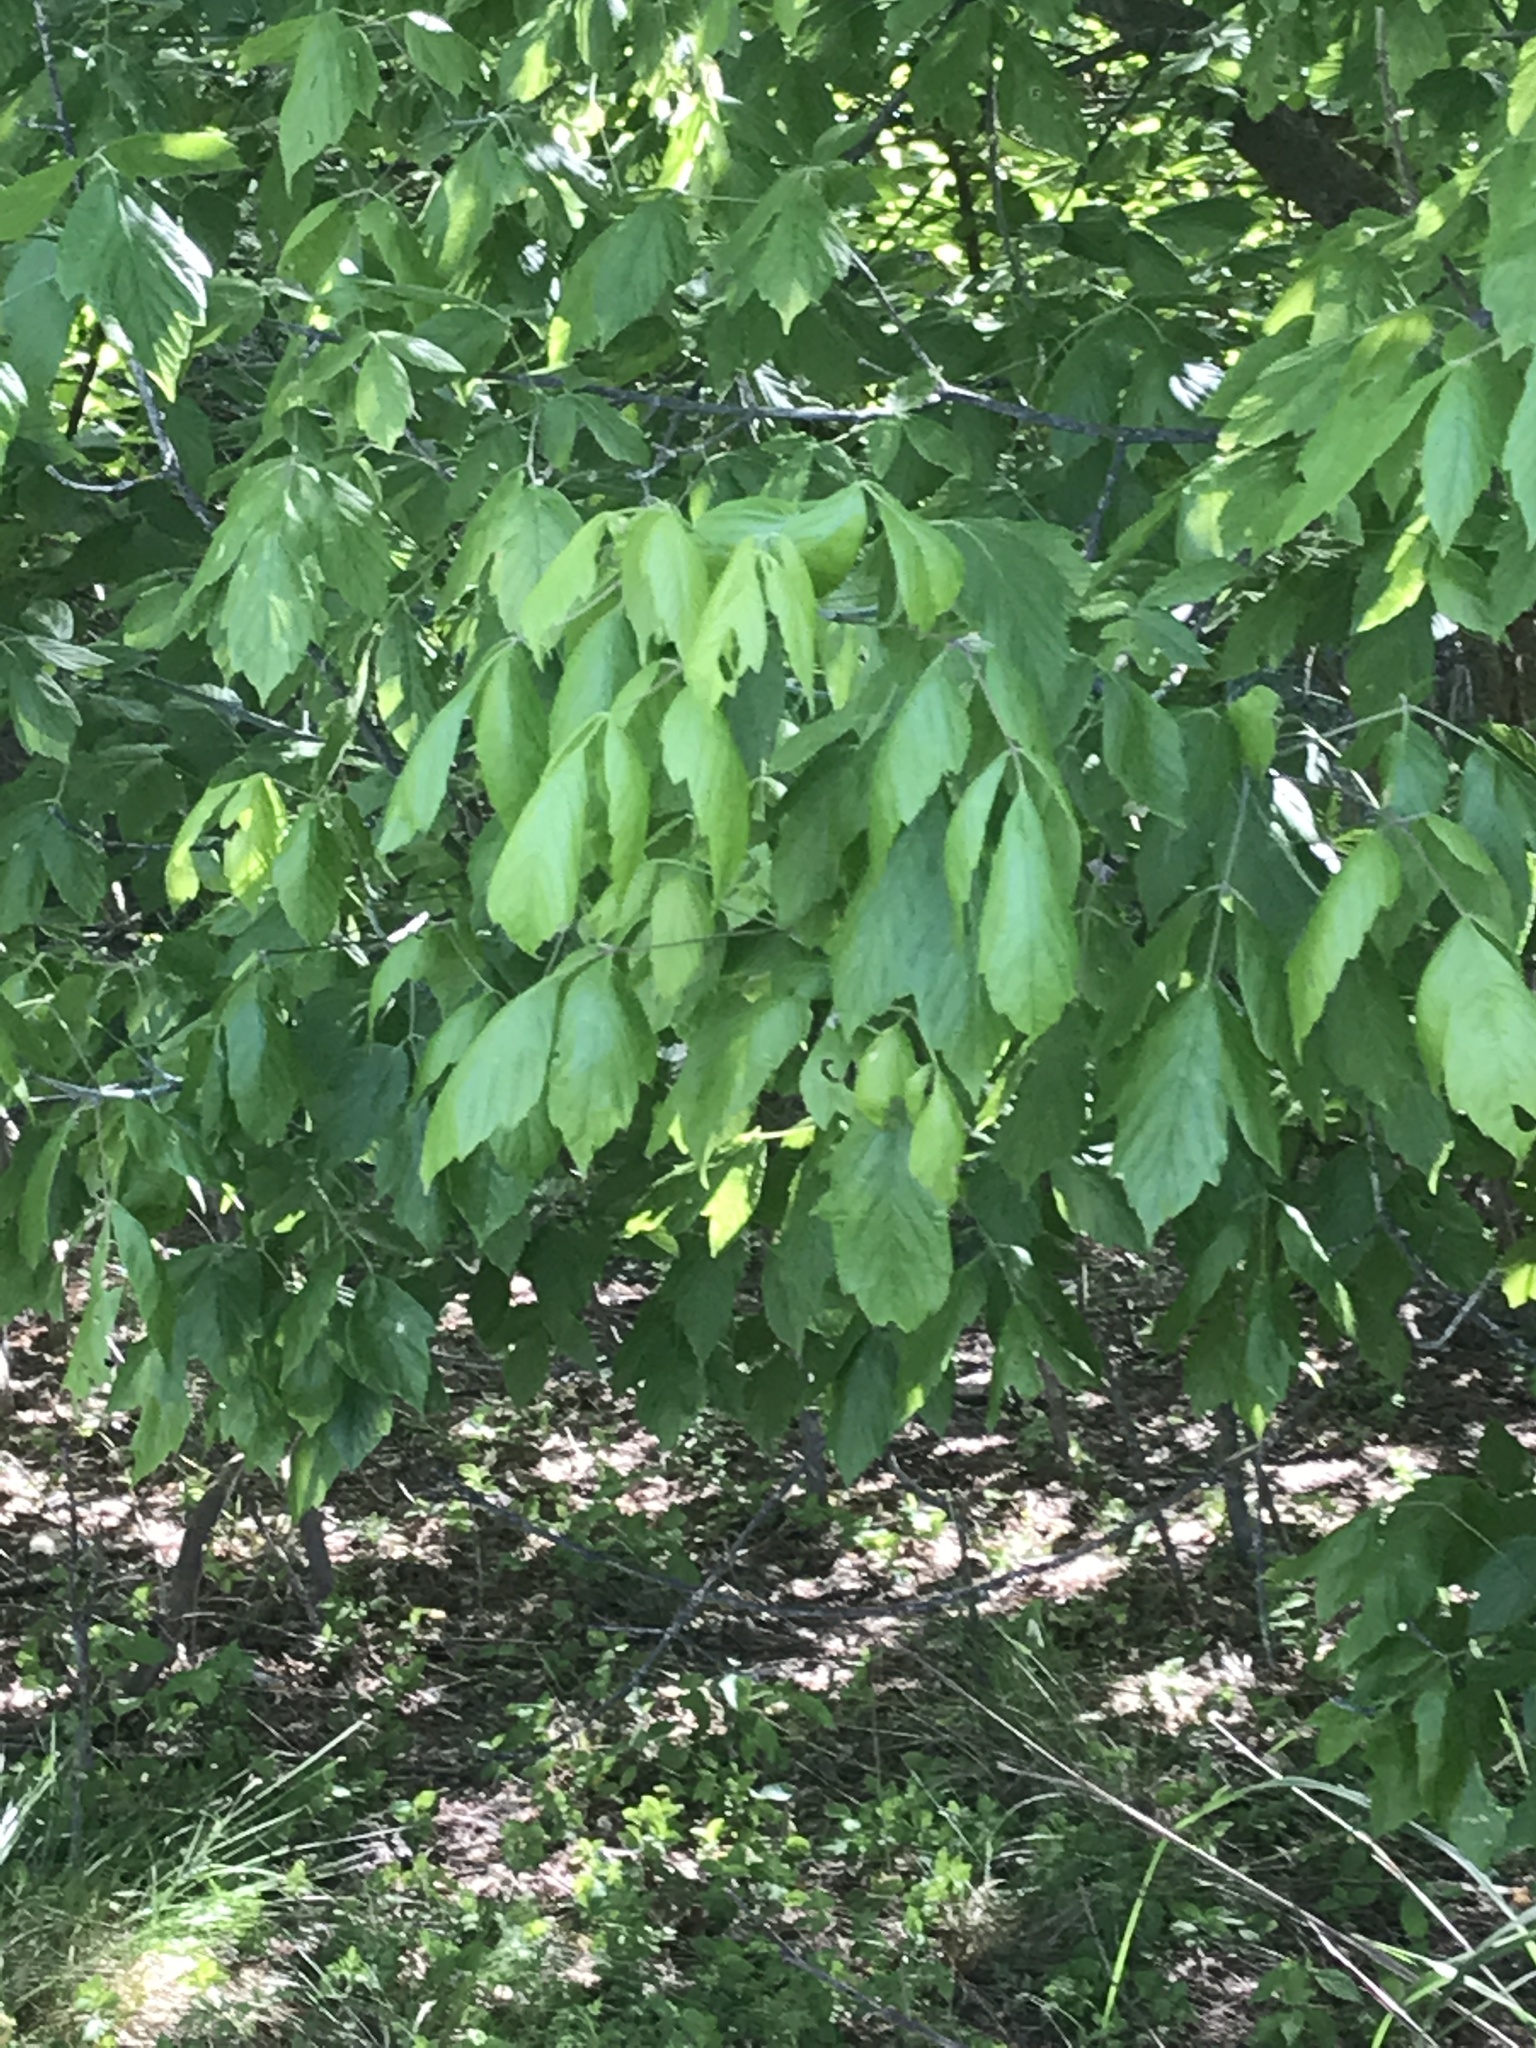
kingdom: Plantae
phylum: Tracheophyta
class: Magnoliopsida
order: Sapindales
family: Sapindaceae
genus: Acer
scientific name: Acer negundo
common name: Ashleaf maple
